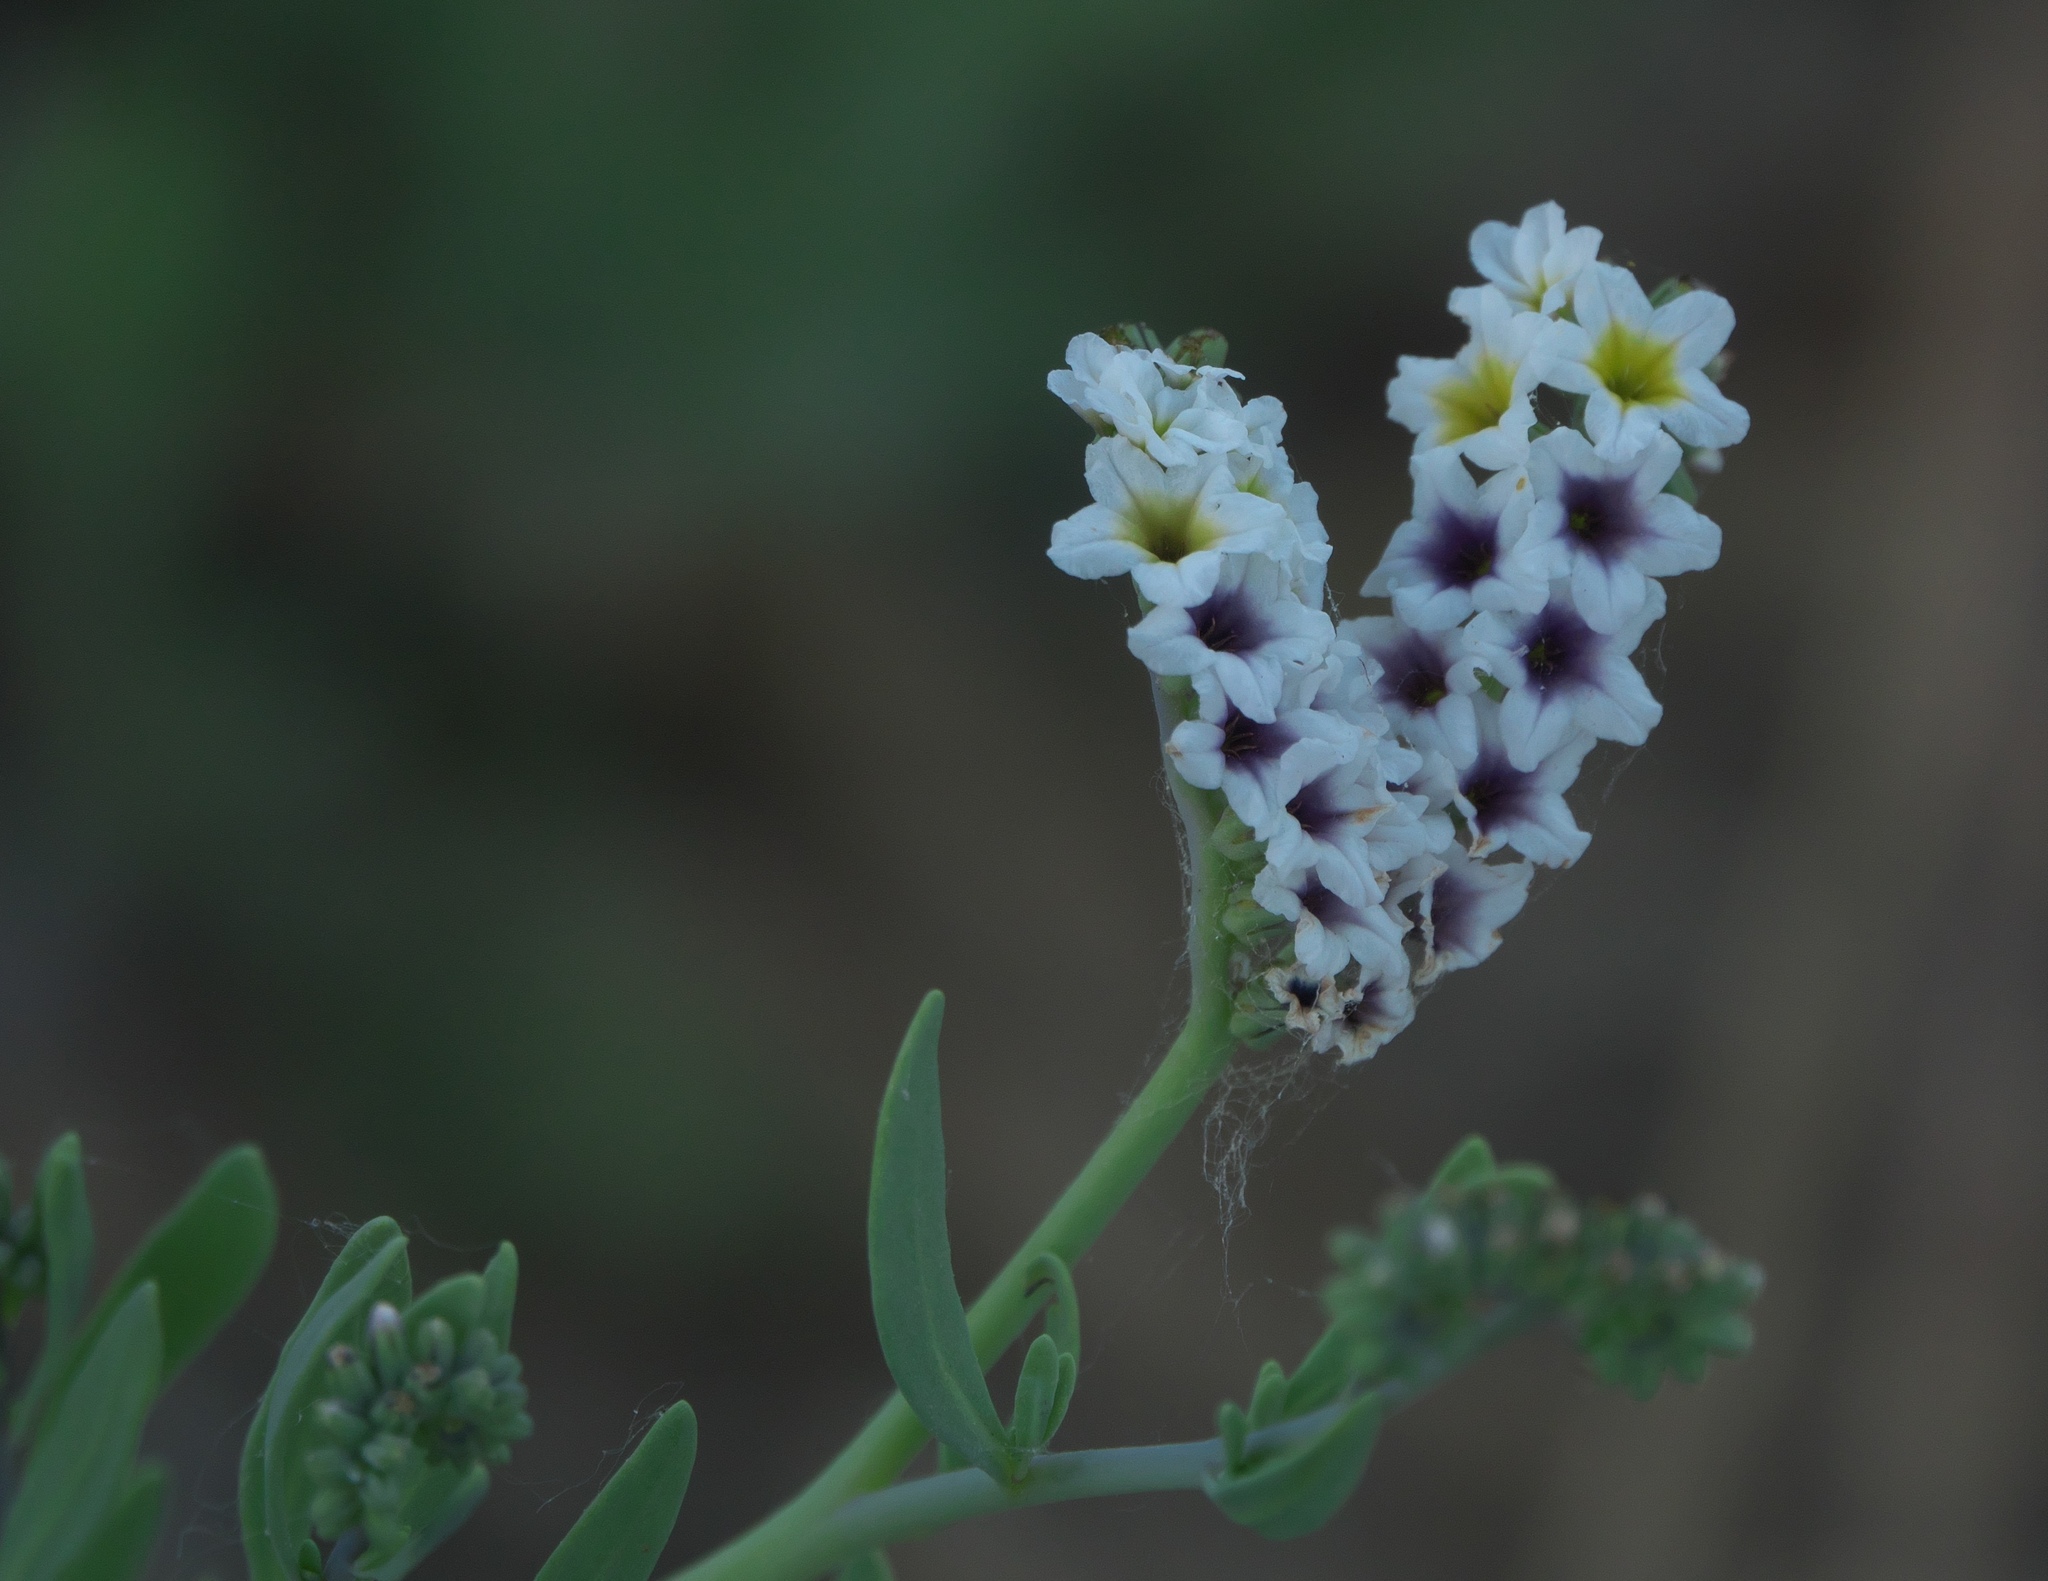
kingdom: Plantae
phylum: Tracheophyta
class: Magnoliopsida
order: Boraginales
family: Heliotropiaceae
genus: Heliotropium
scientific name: Heliotropium curassavicum
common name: Seaside heliotrope
